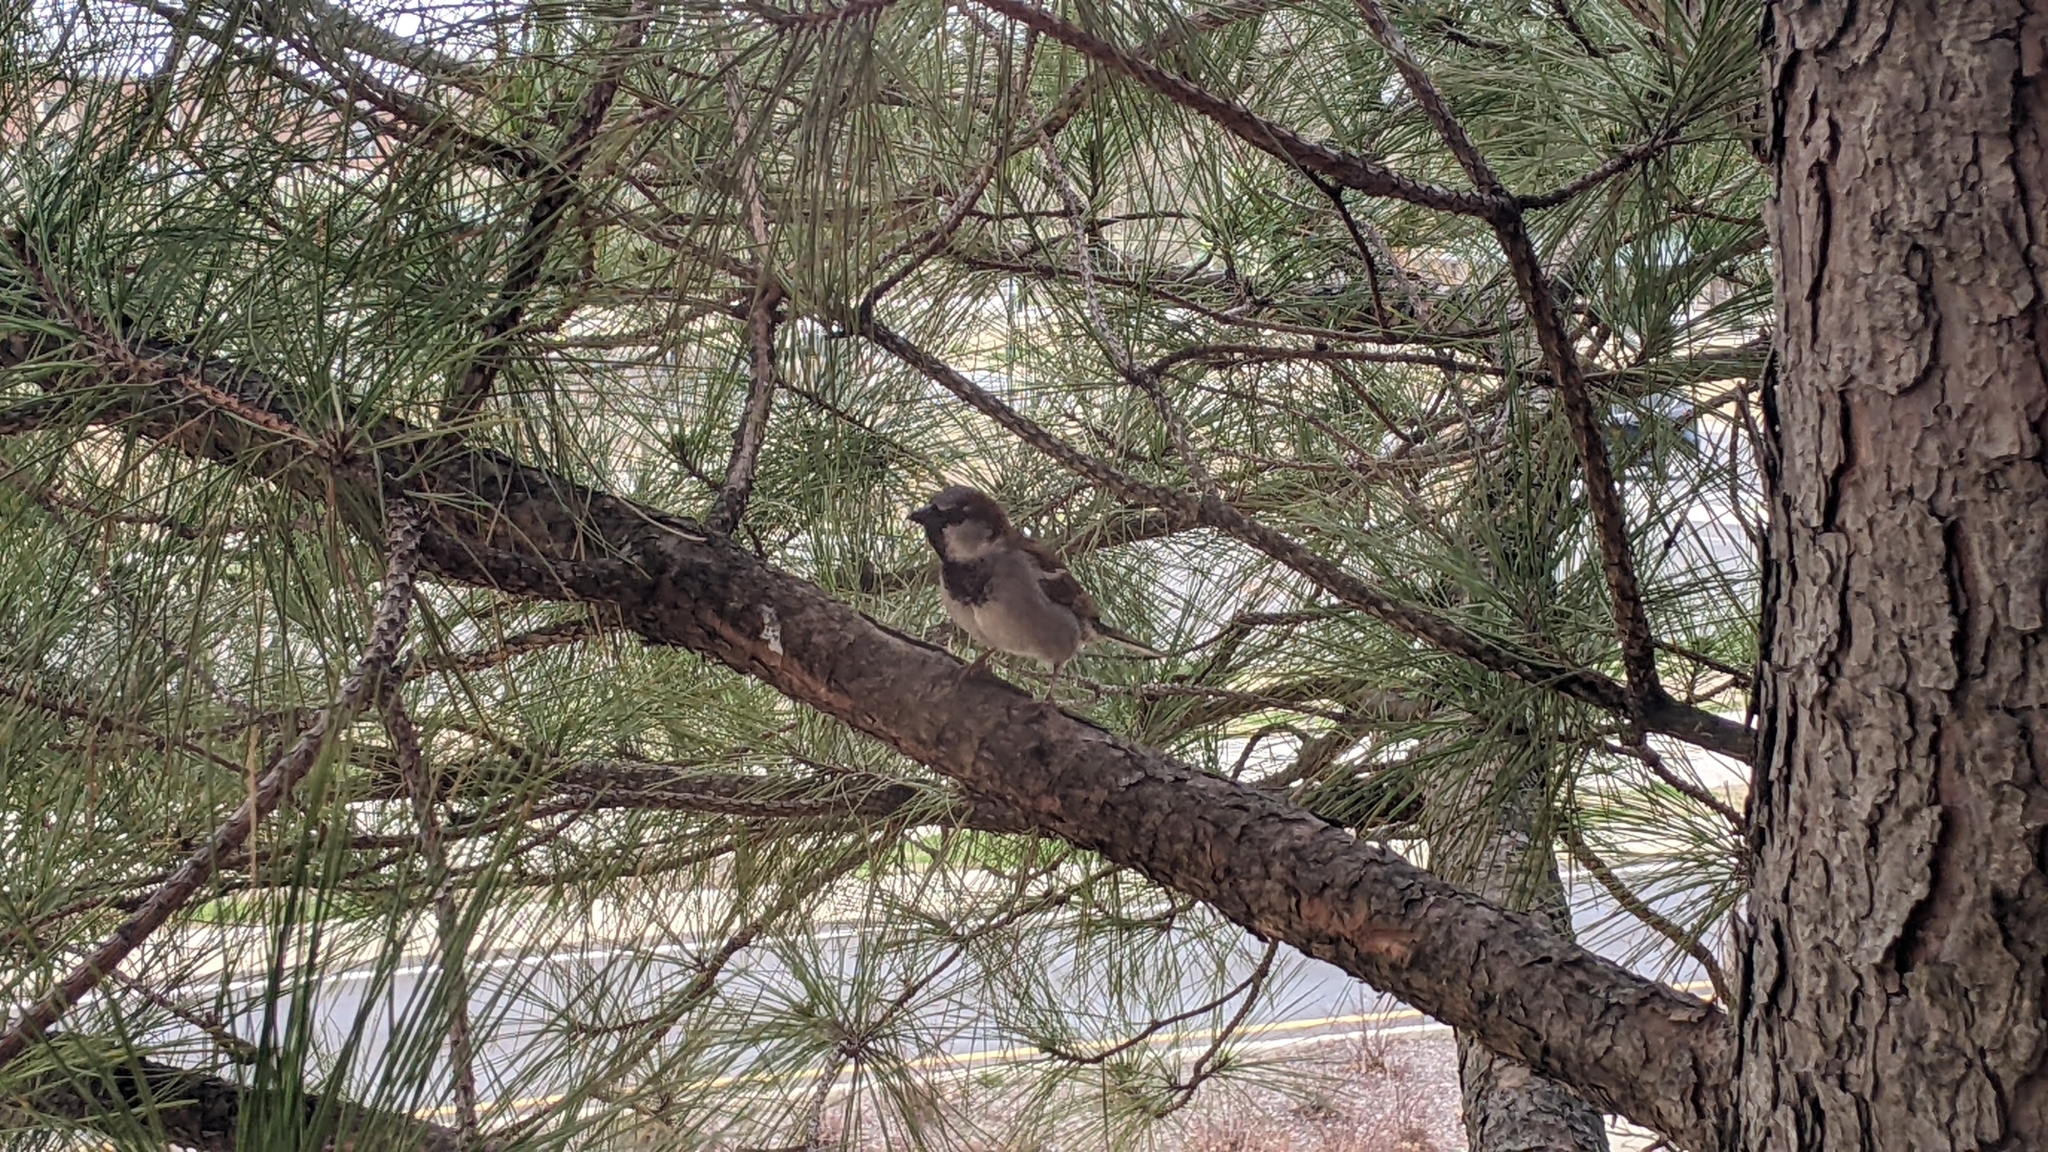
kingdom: Animalia
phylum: Chordata
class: Aves
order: Passeriformes
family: Passeridae
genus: Passer
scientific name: Passer domesticus
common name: House sparrow
